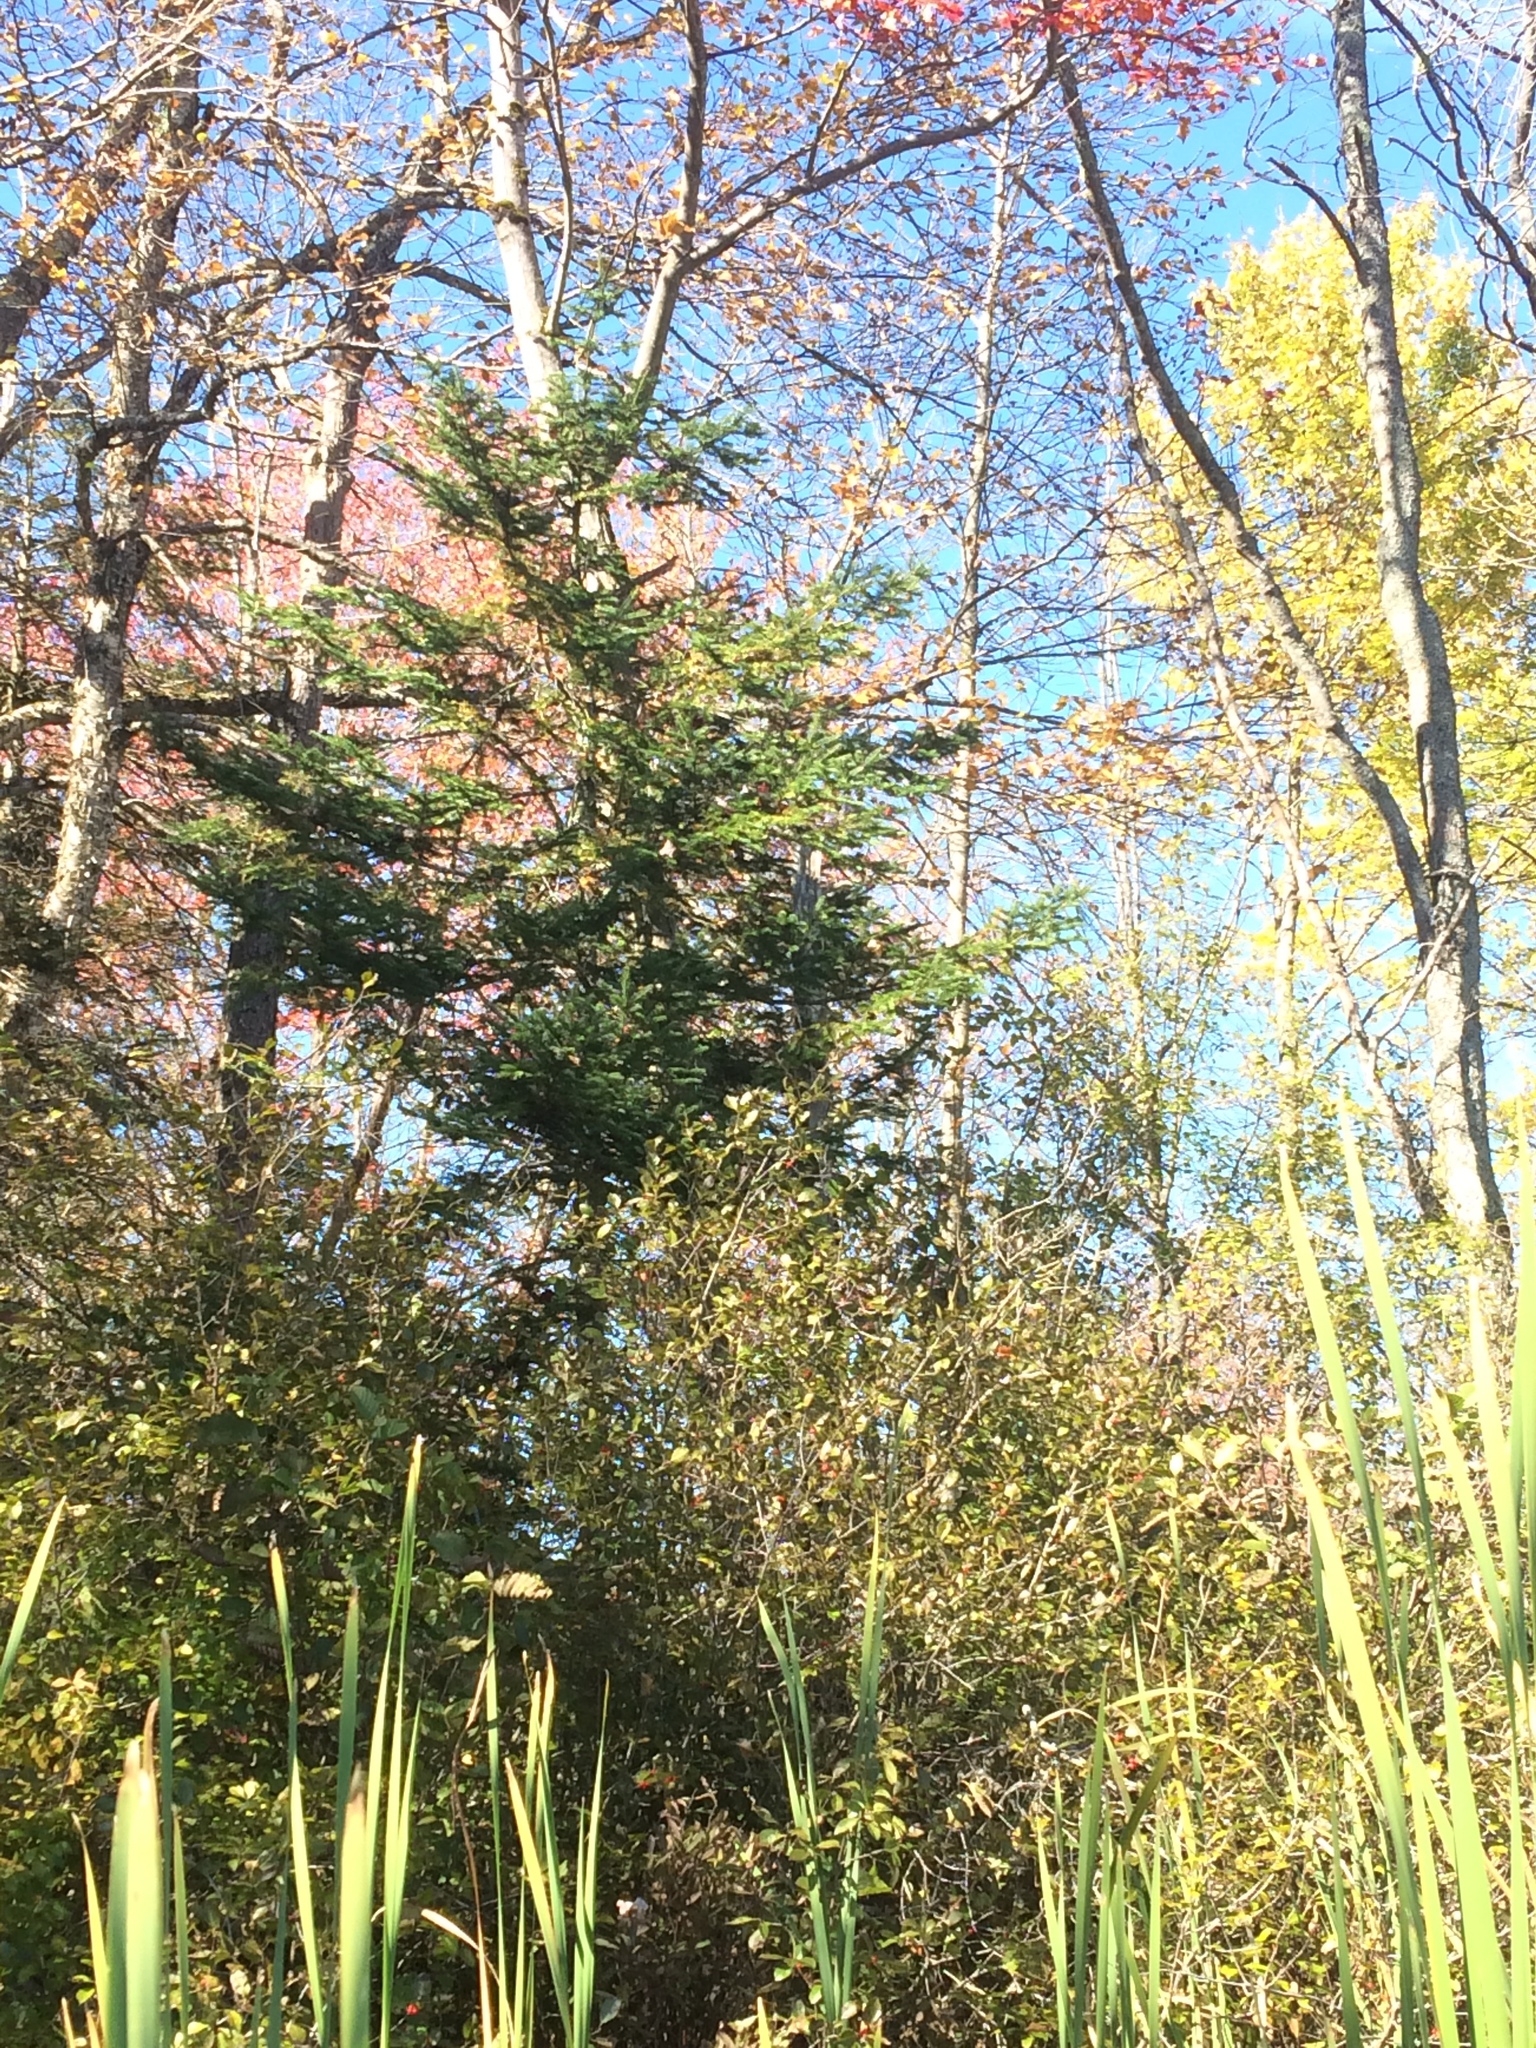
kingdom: Plantae
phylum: Tracheophyta
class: Pinopsida
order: Pinales
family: Pinaceae
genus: Abies
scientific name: Abies balsamea
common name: Balsam fir
